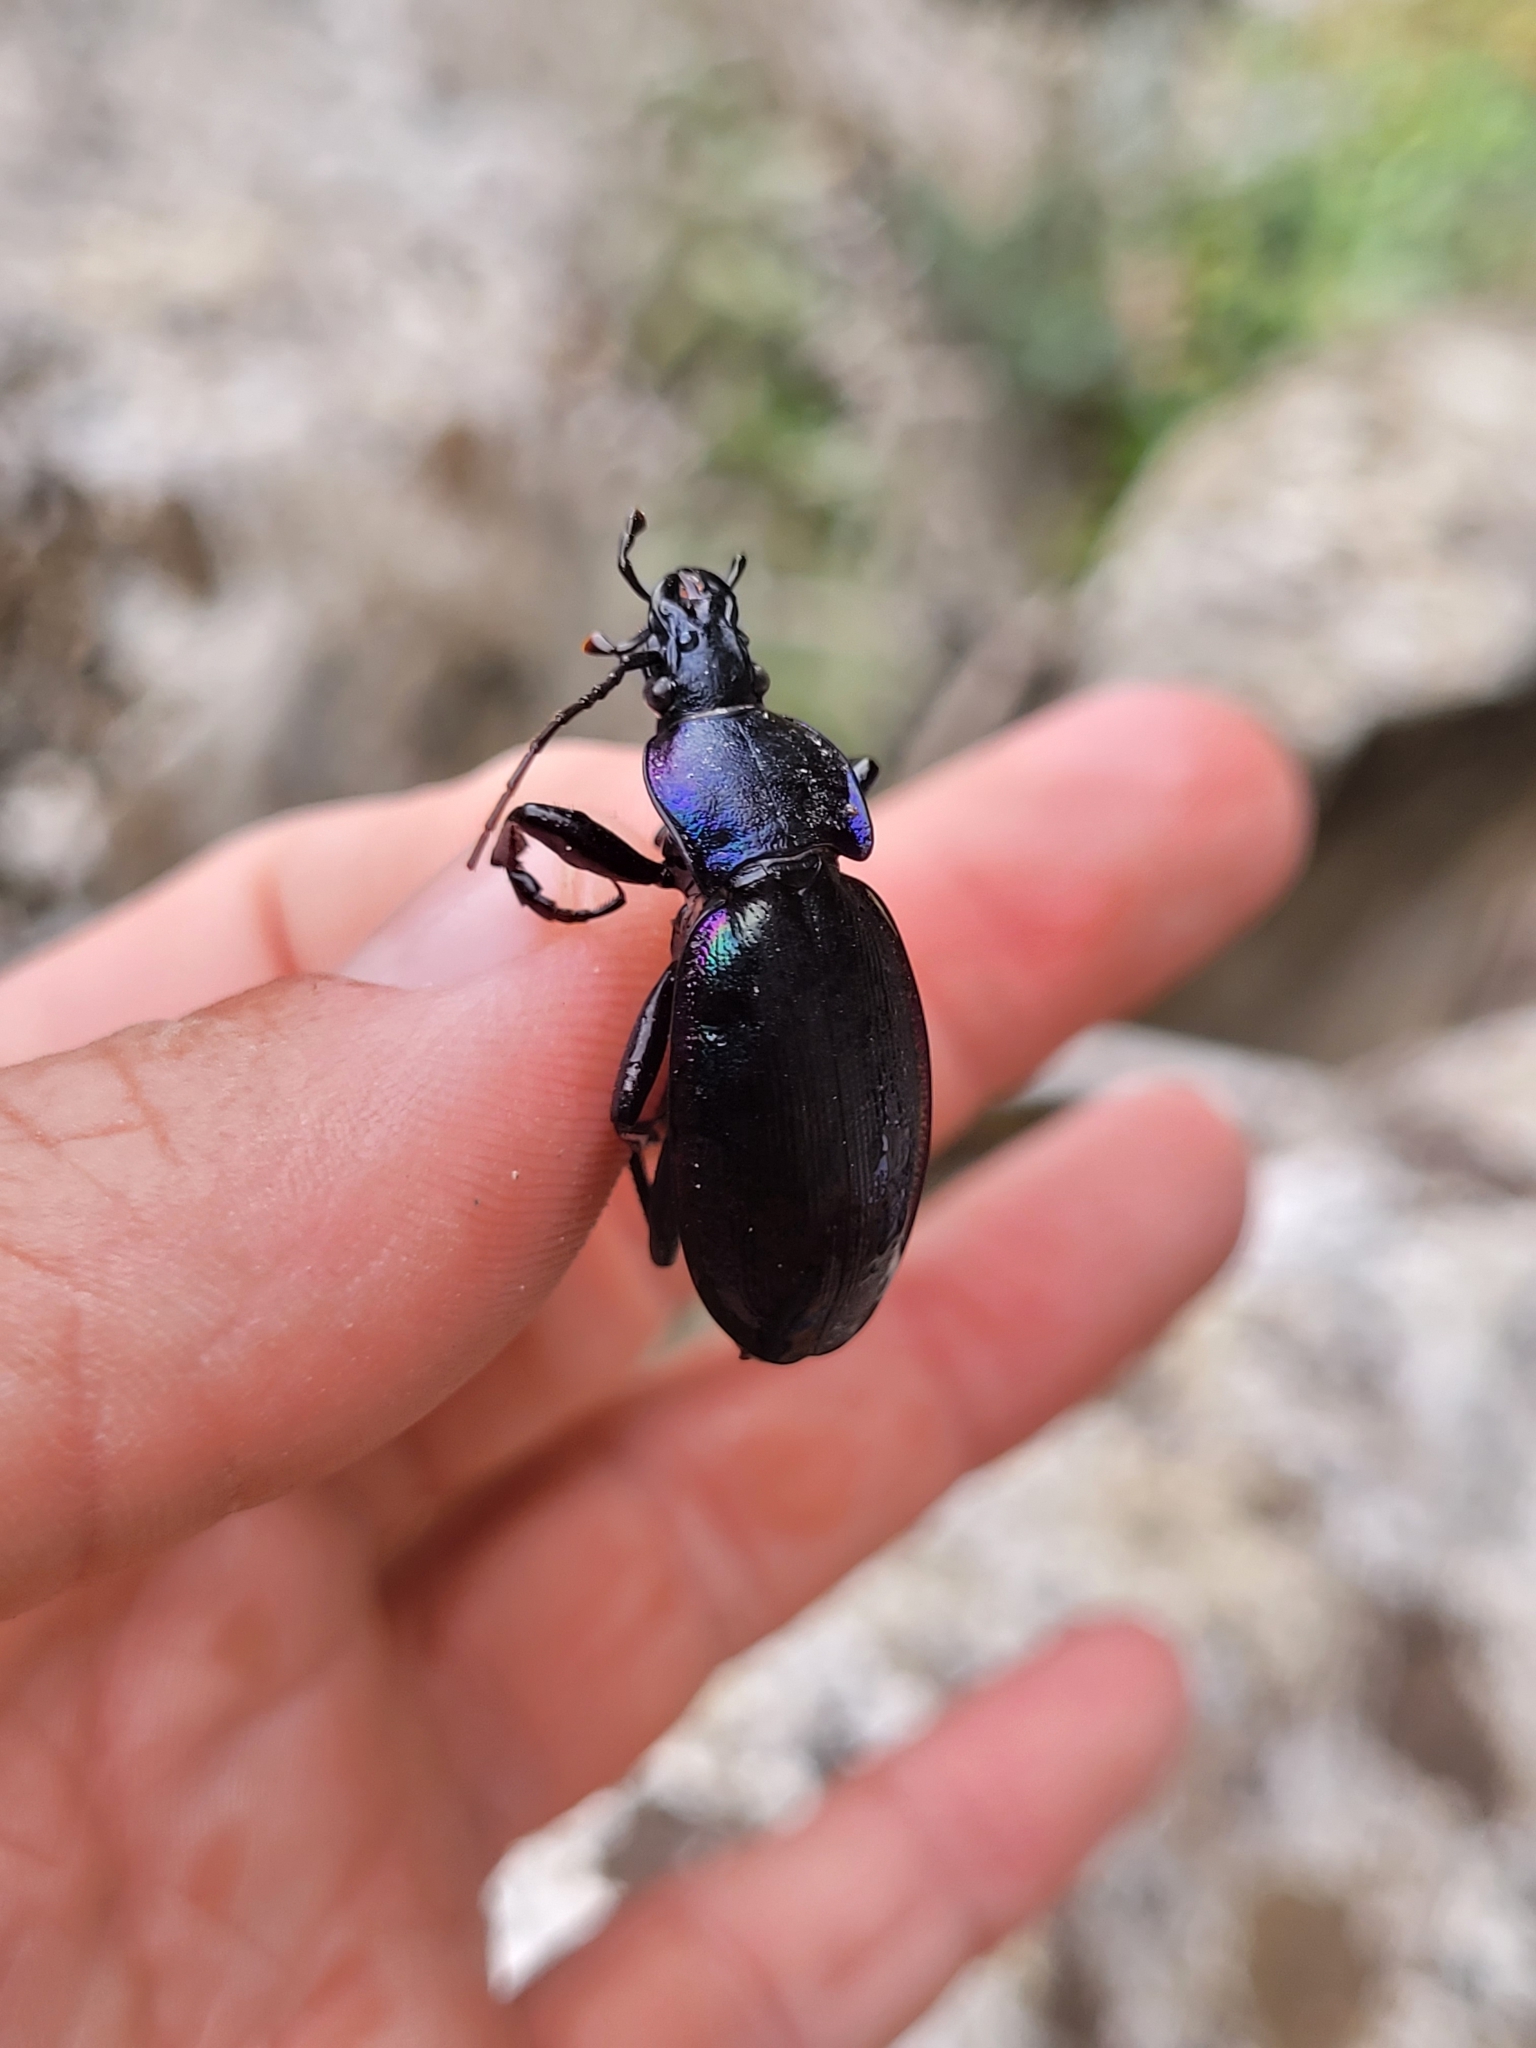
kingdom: Animalia
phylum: Arthropoda
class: Insecta
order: Coleoptera
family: Carabidae
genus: Carabus
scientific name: Carabus purpurascens
